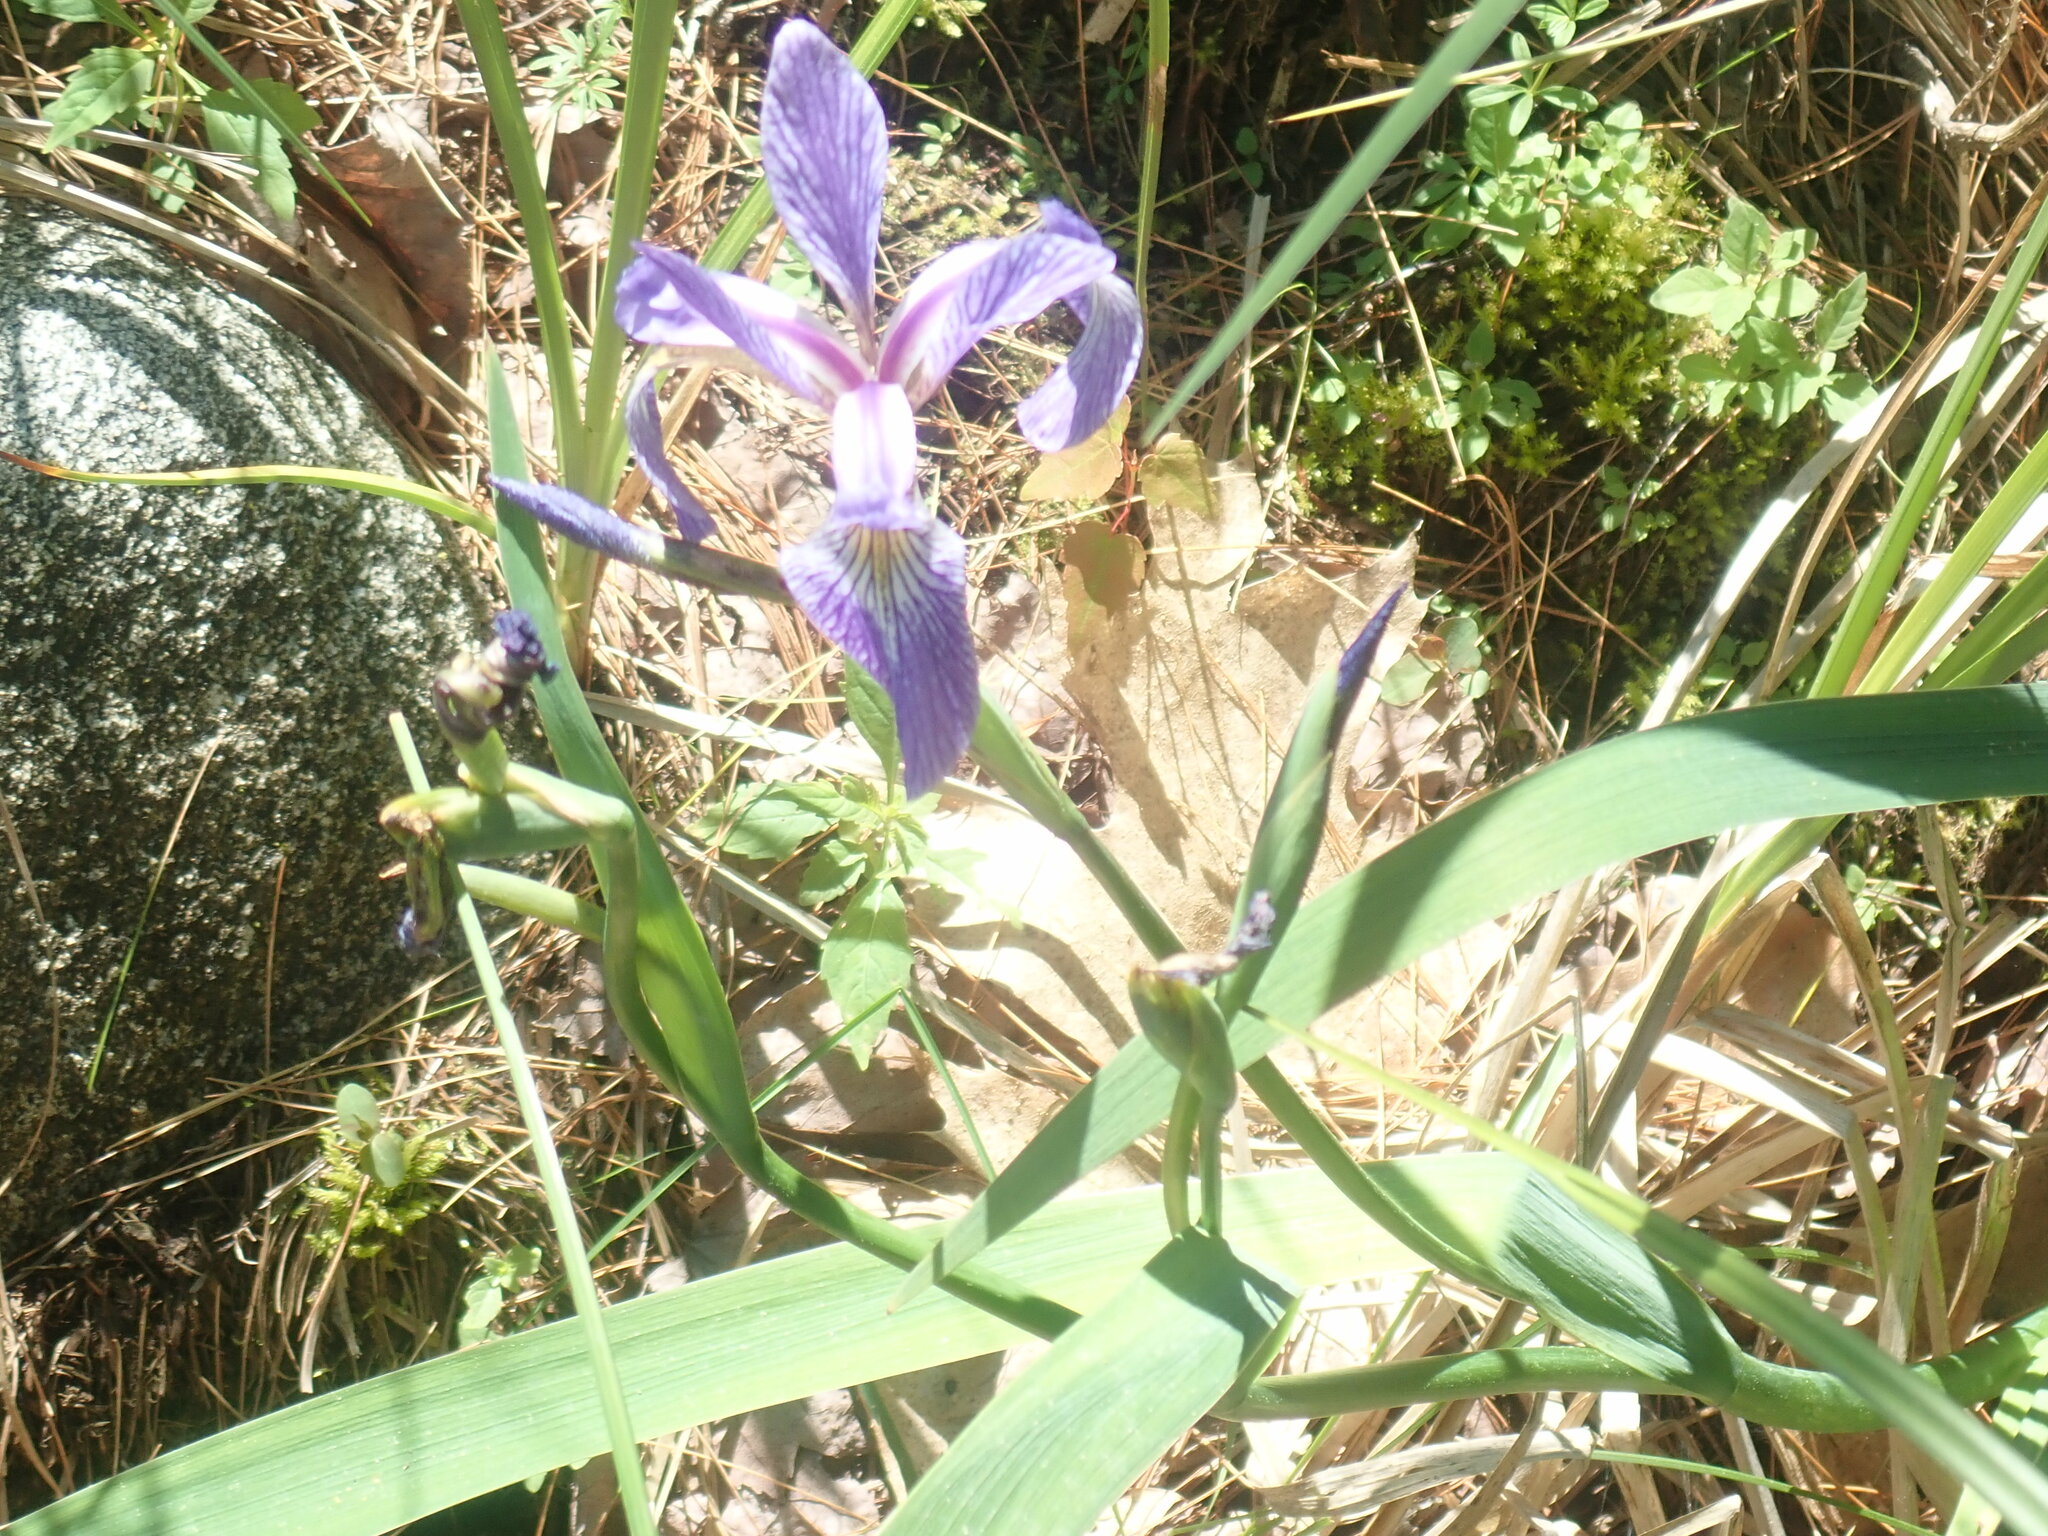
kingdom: Plantae
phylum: Tracheophyta
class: Liliopsida
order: Asparagales
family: Iridaceae
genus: Iris
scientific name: Iris versicolor
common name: Purple iris
